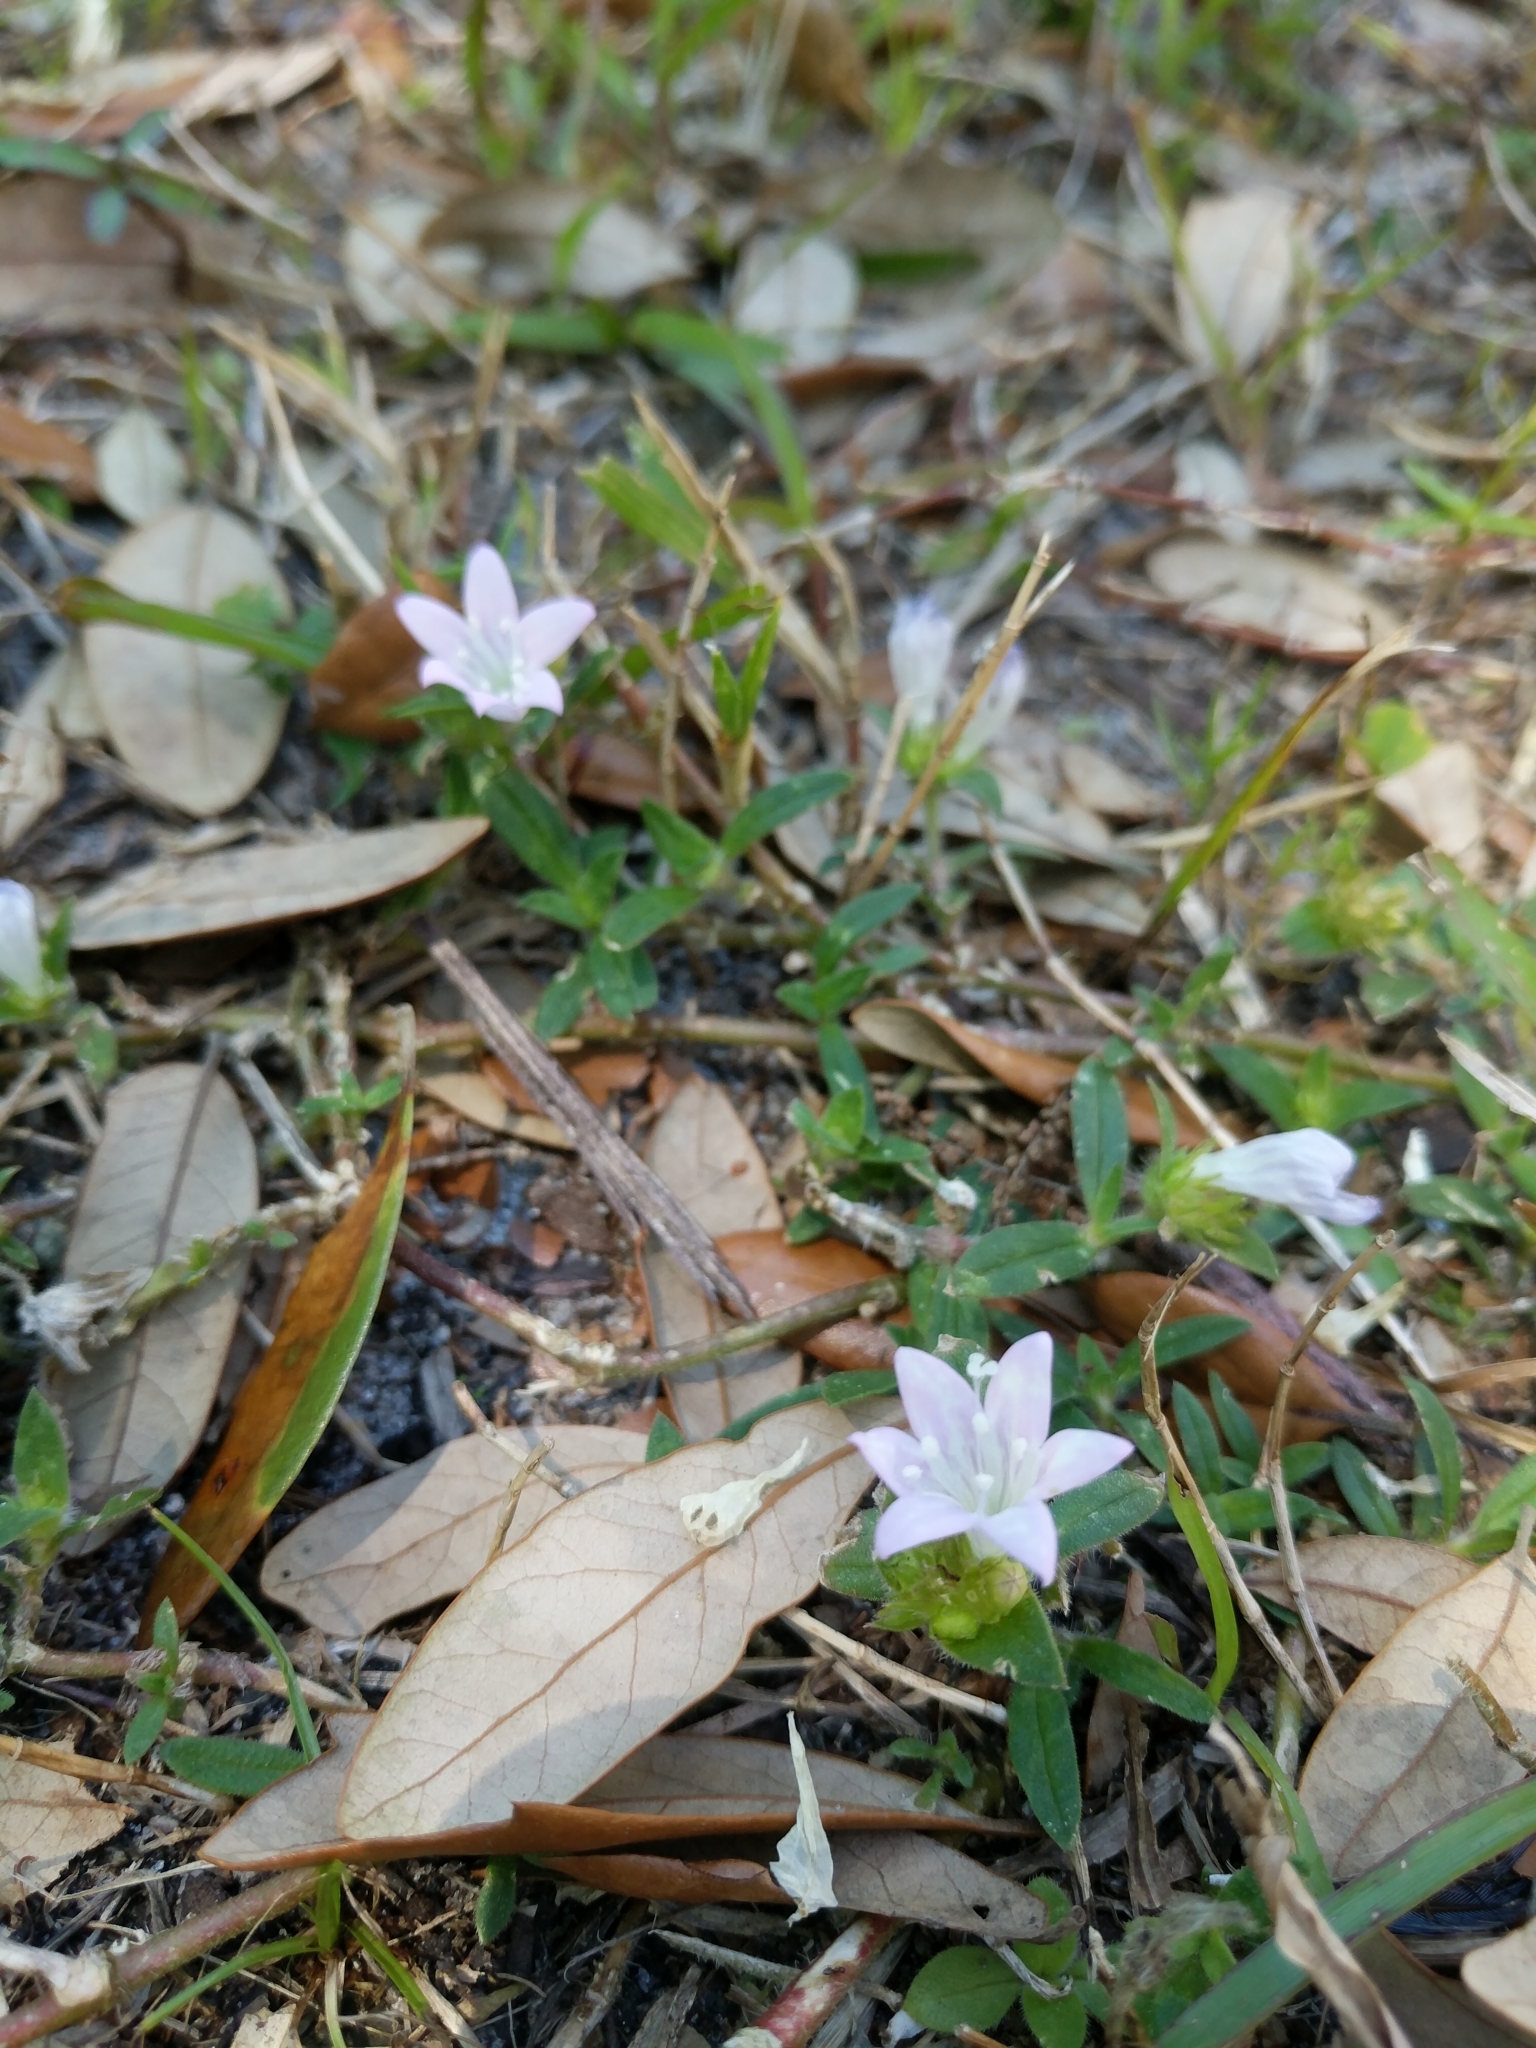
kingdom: Plantae
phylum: Tracheophyta
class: Magnoliopsida
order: Gentianales
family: Rubiaceae
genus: Richardia
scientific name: Richardia grandiflora
